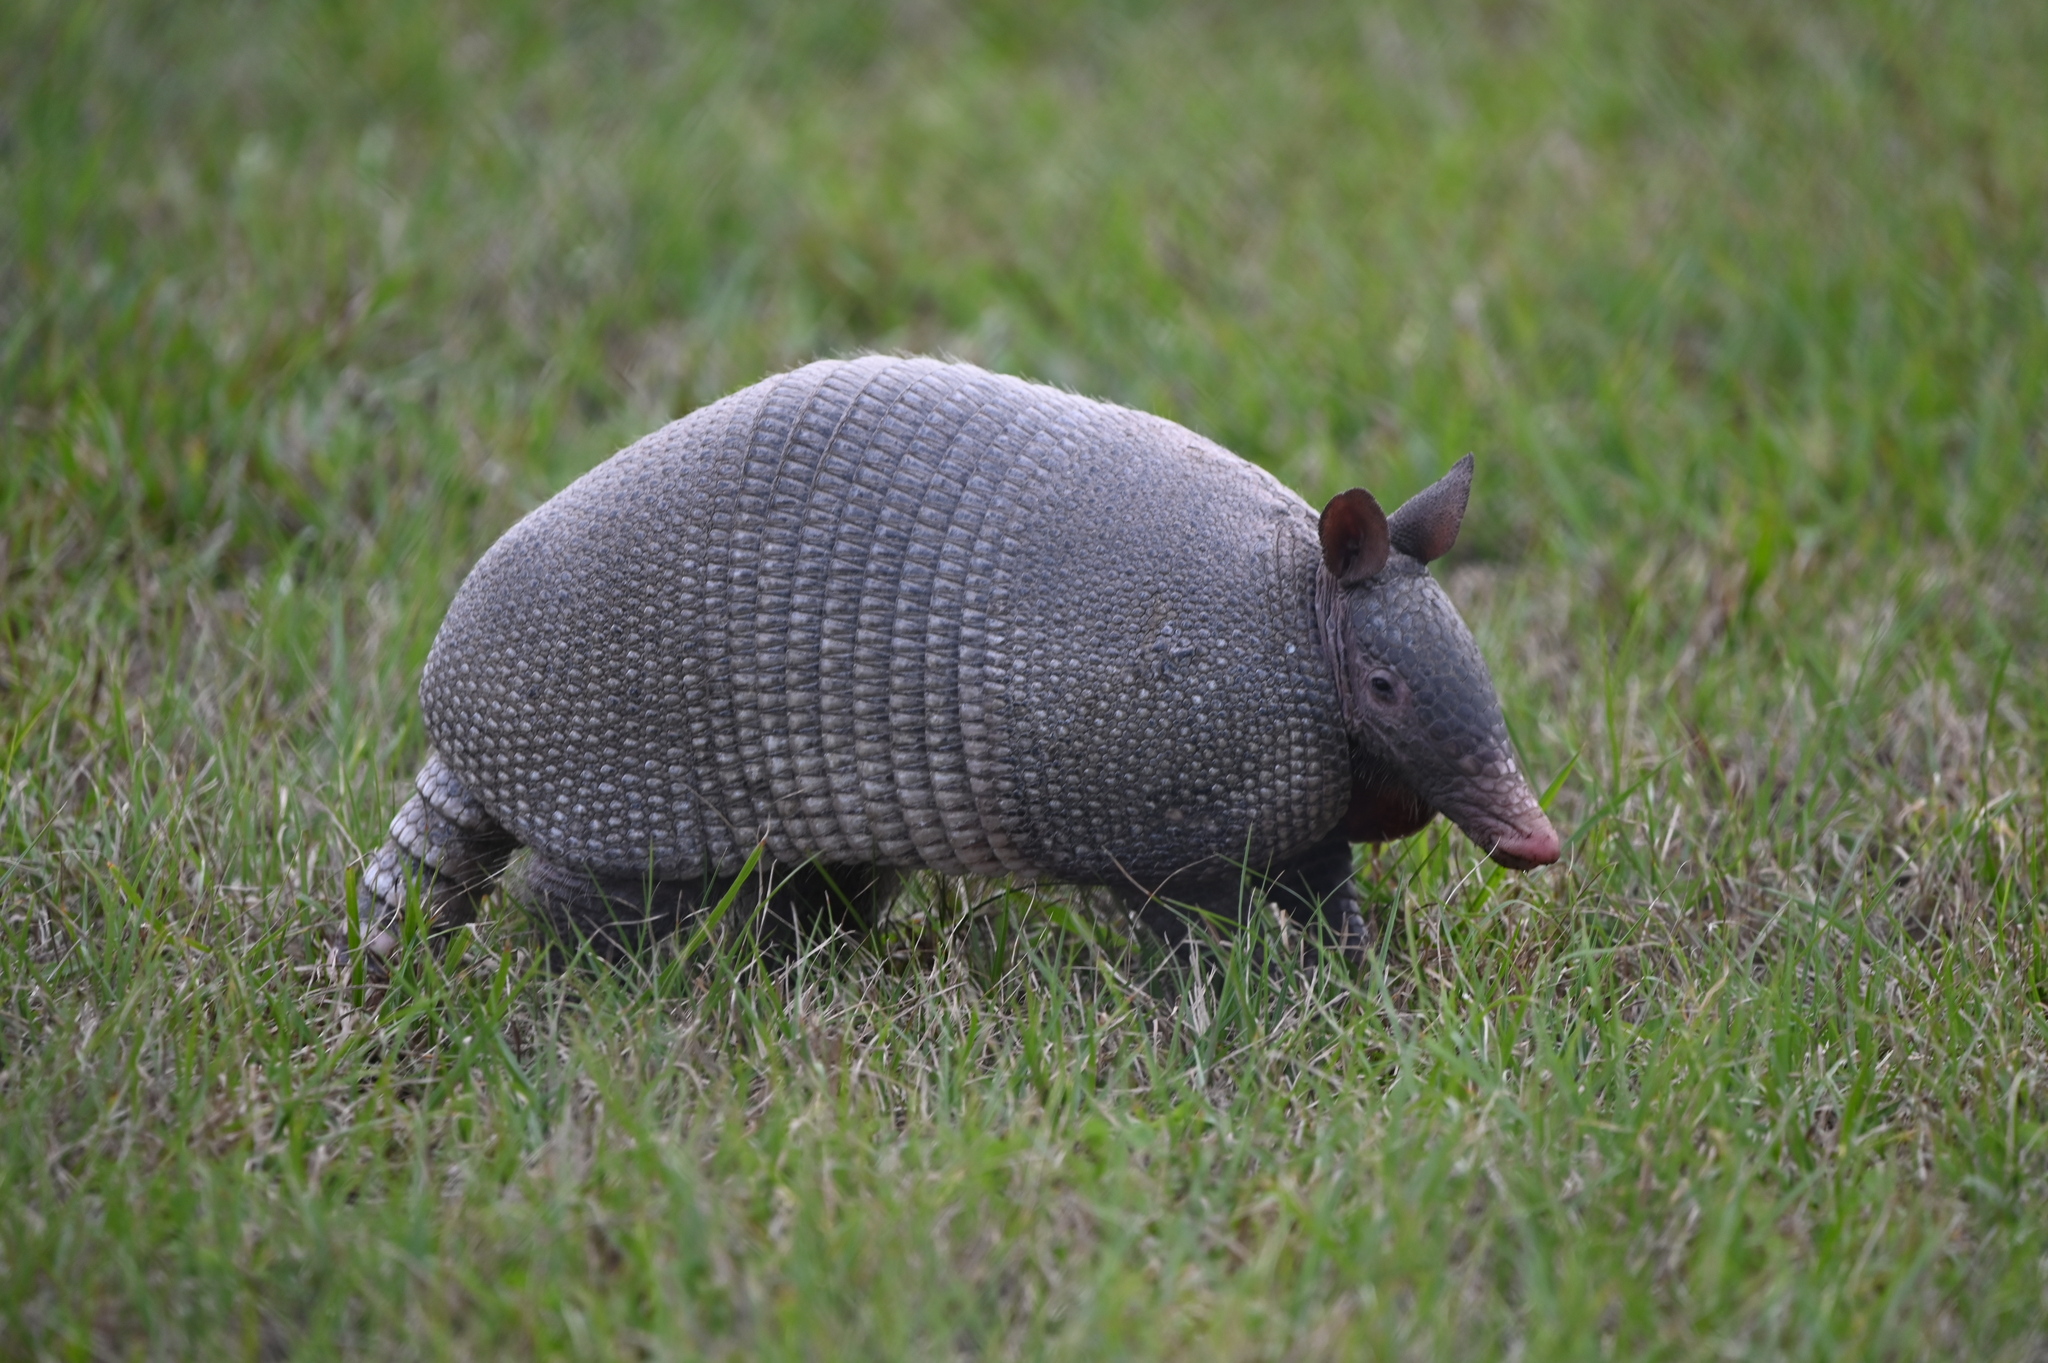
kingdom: Animalia
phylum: Chordata
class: Mammalia
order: Cingulata
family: Dasypodidae
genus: Dasypus
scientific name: Dasypus novemcinctus
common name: Nine-banded armadillo
